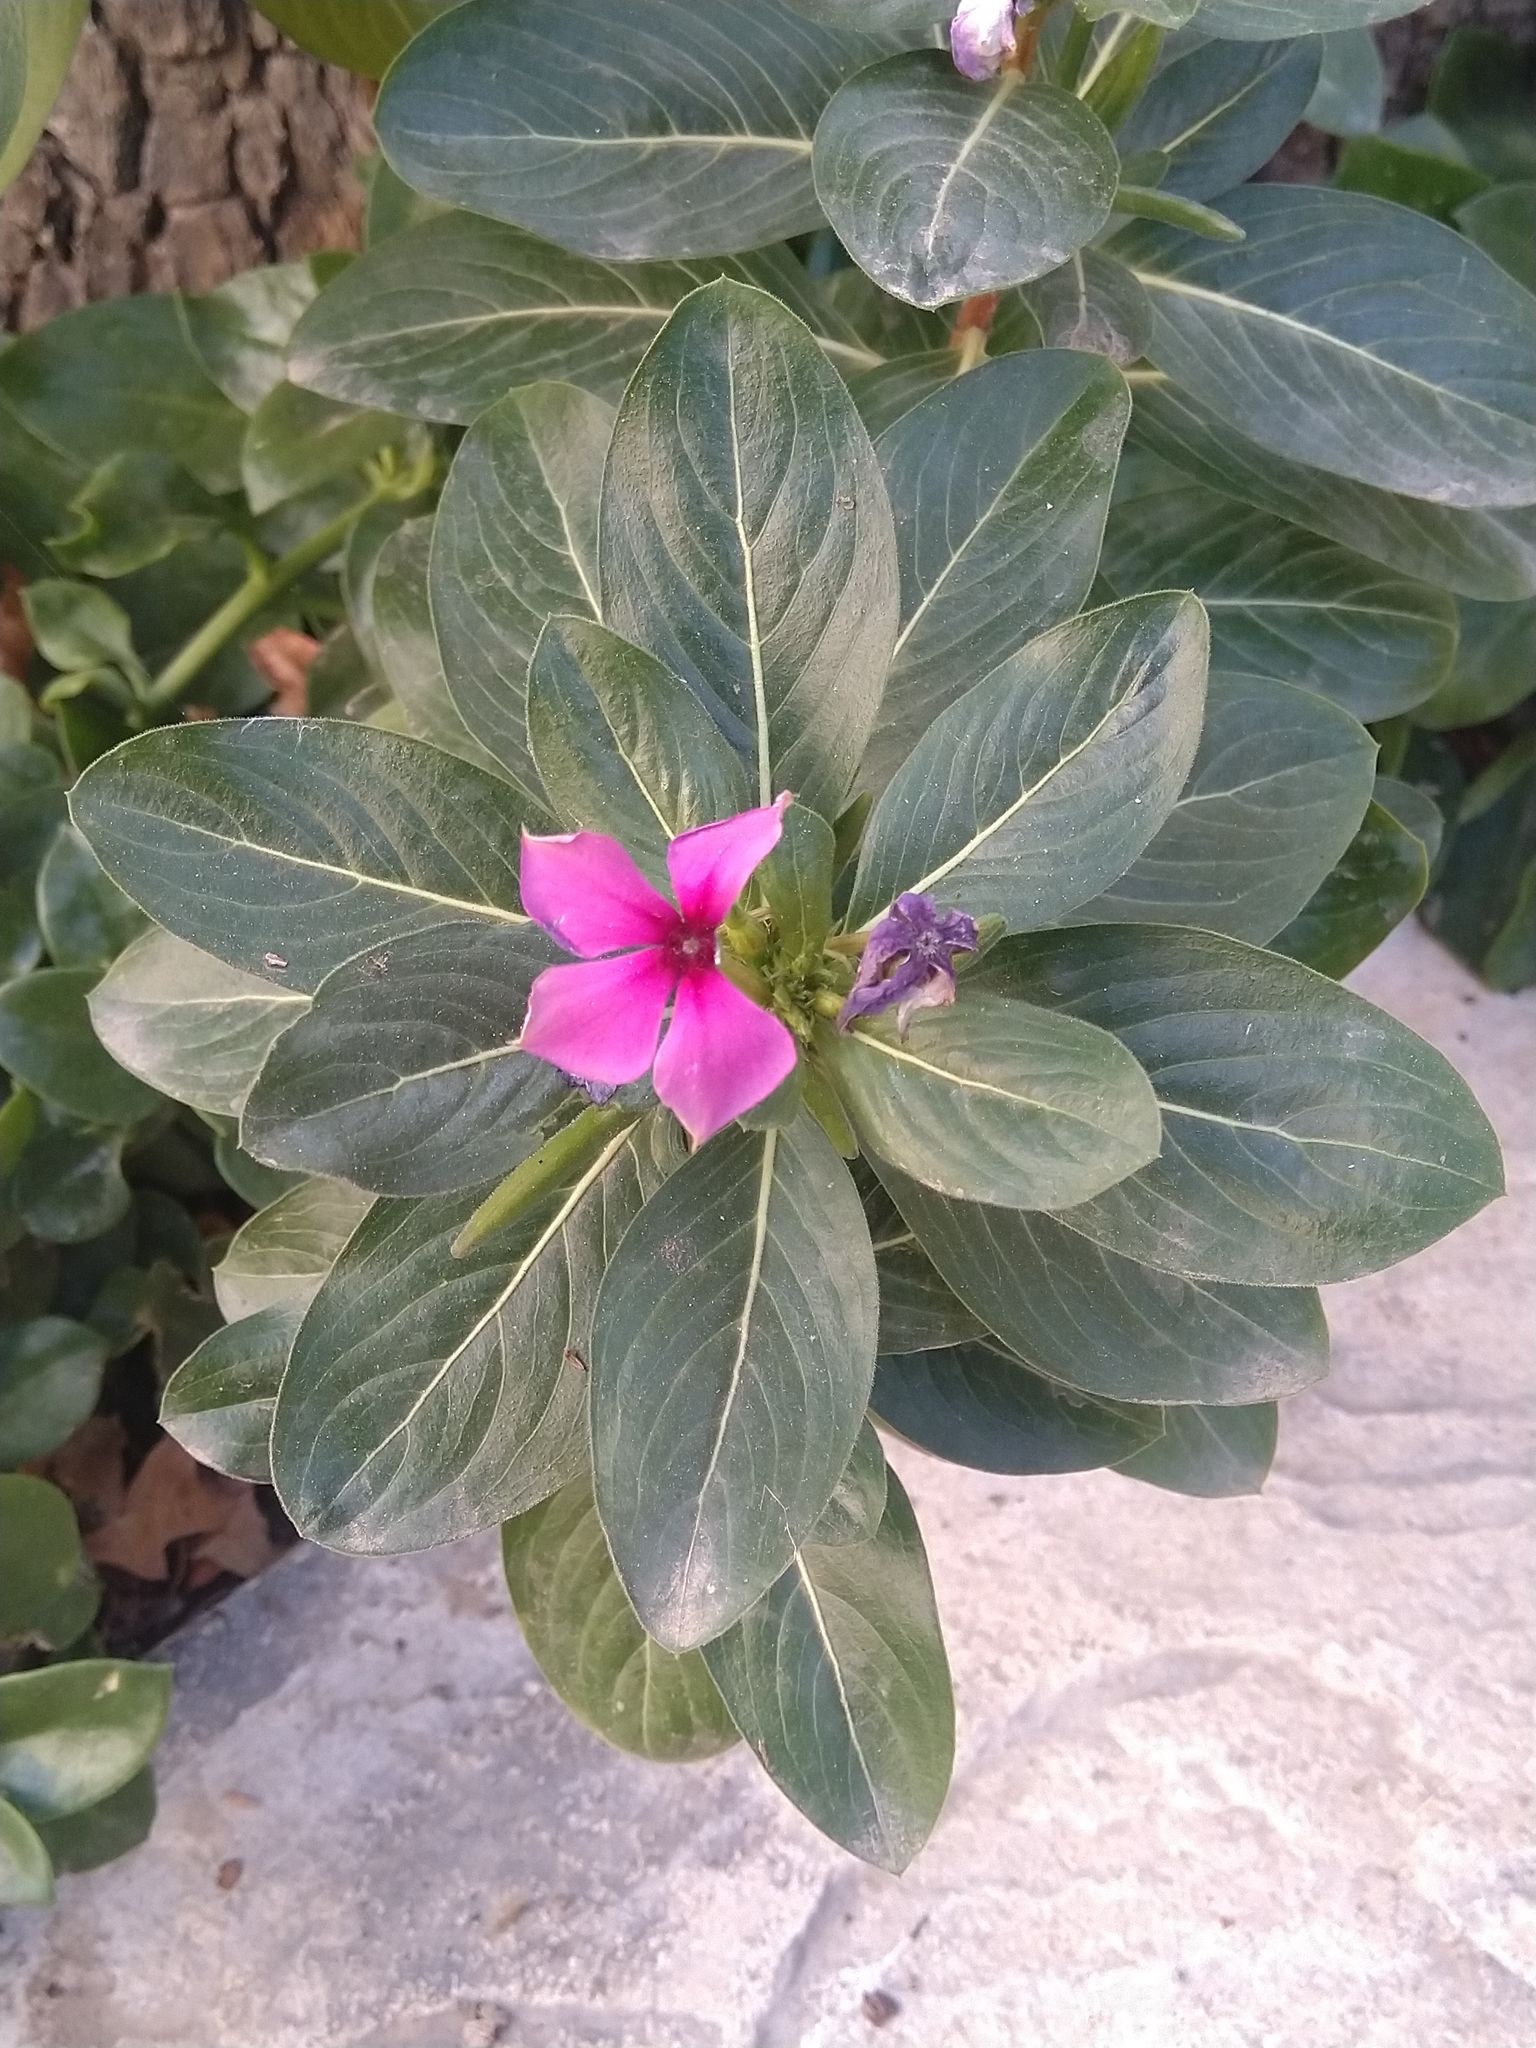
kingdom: Plantae
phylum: Tracheophyta
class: Magnoliopsida
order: Gentianales
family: Apocynaceae
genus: Catharanthus
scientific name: Catharanthus roseus
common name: Madagascar periwinkle
